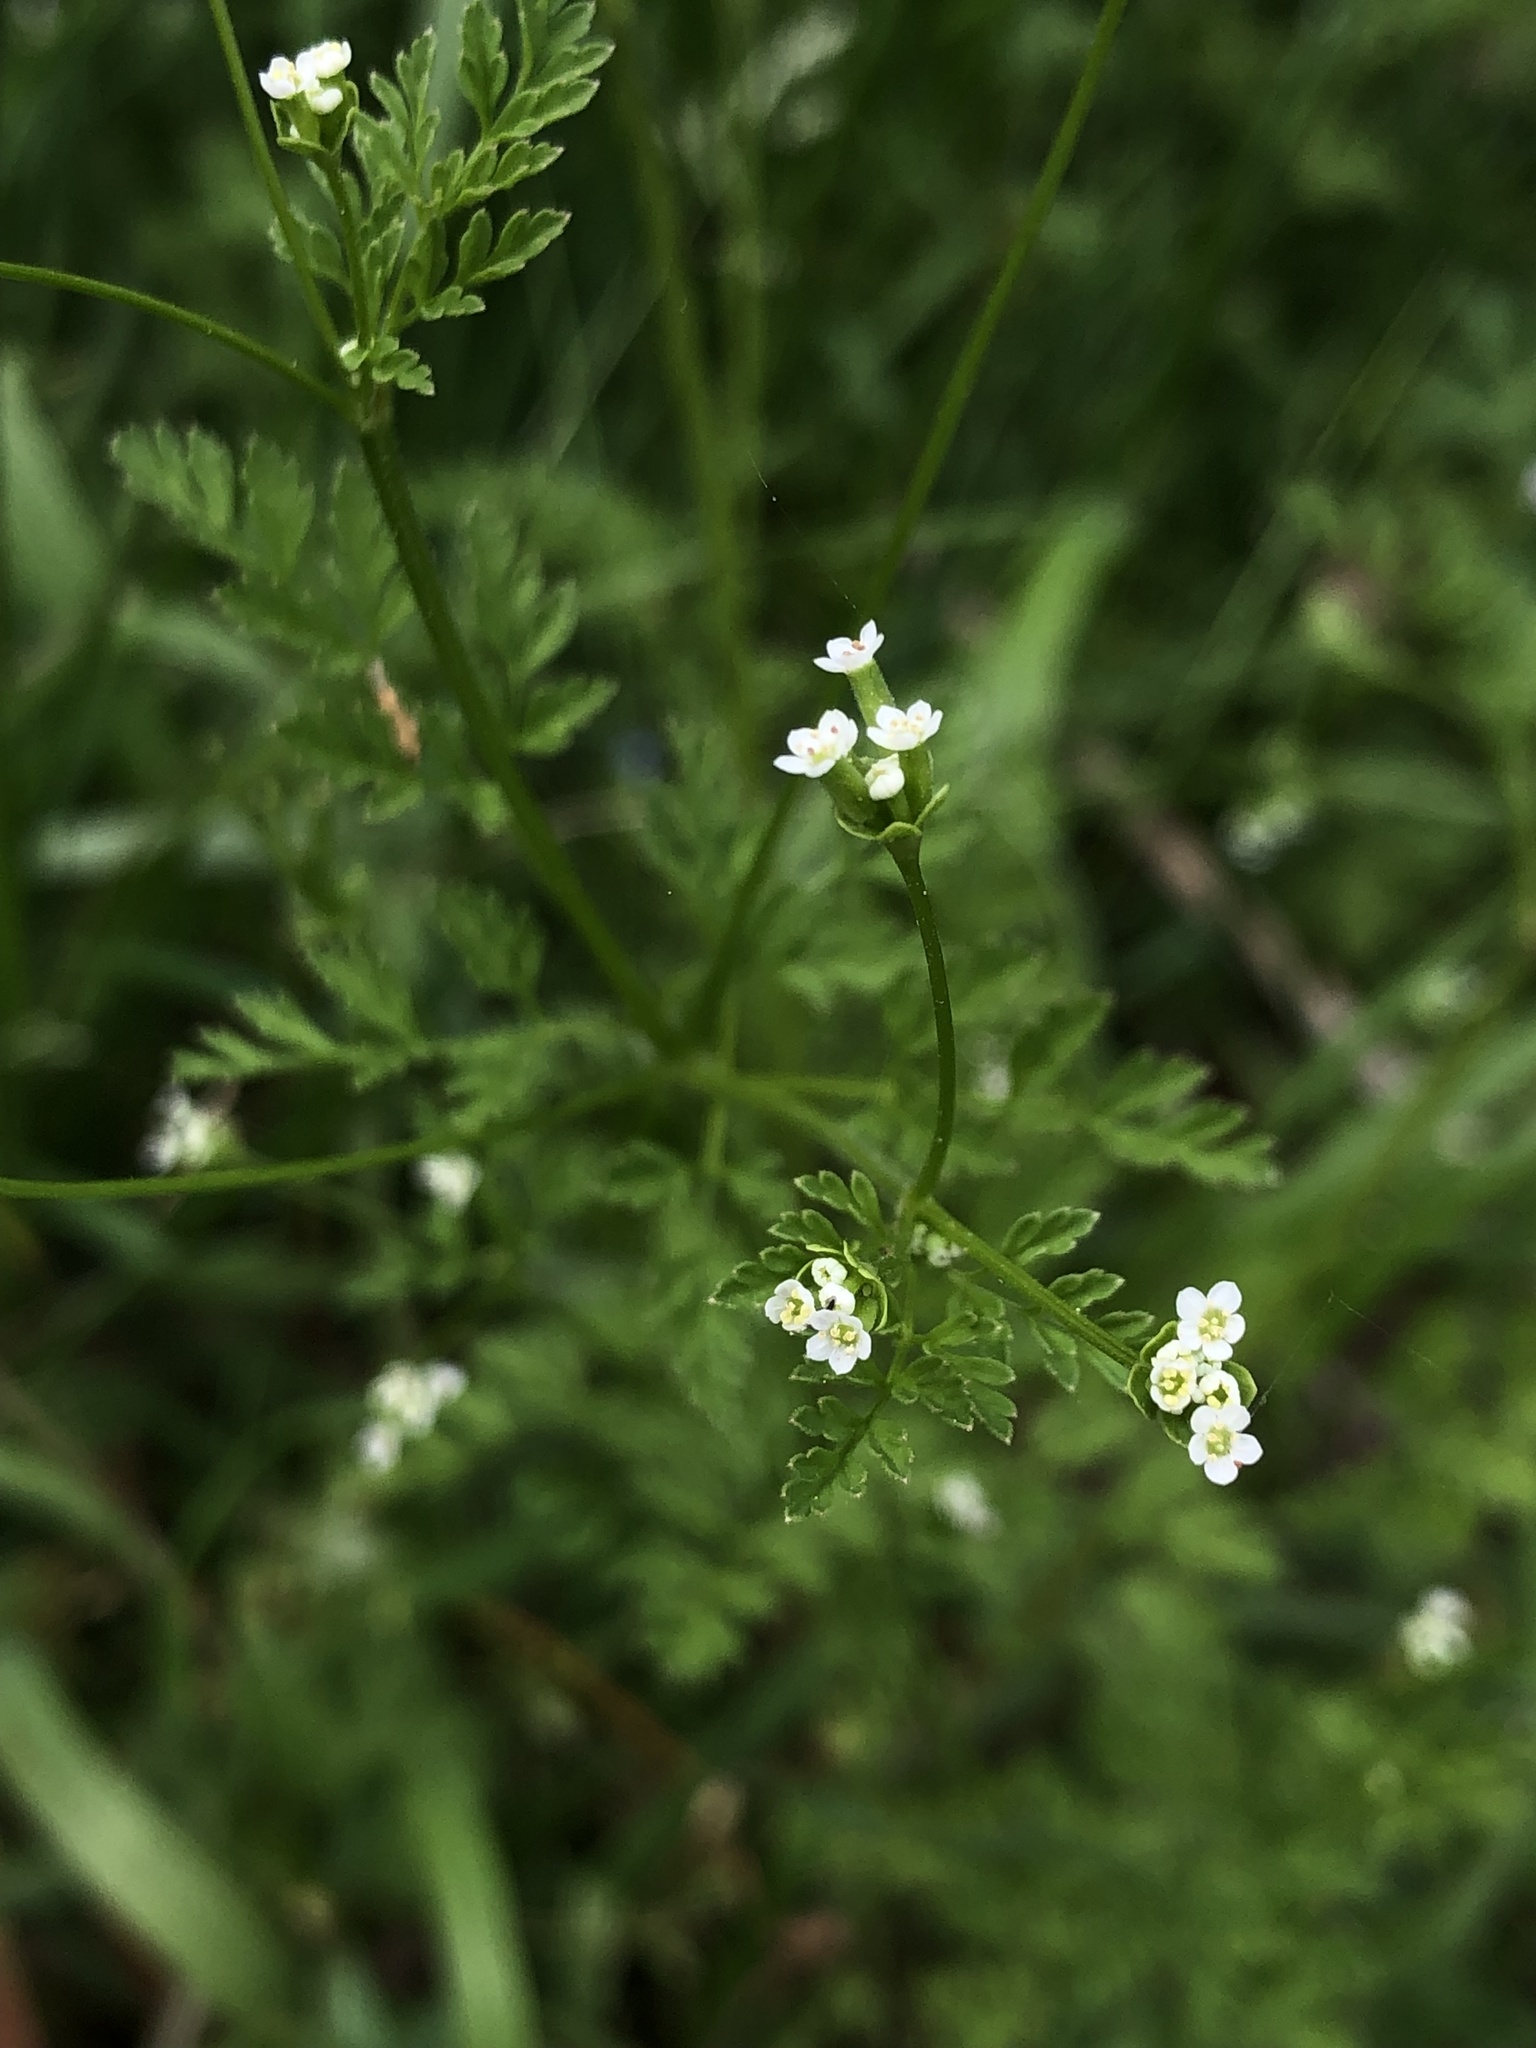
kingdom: Plantae
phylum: Tracheophyta
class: Magnoliopsida
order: Apiales
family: Apiaceae
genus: Chaerophyllum
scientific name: Chaerophyllum tainturieri
